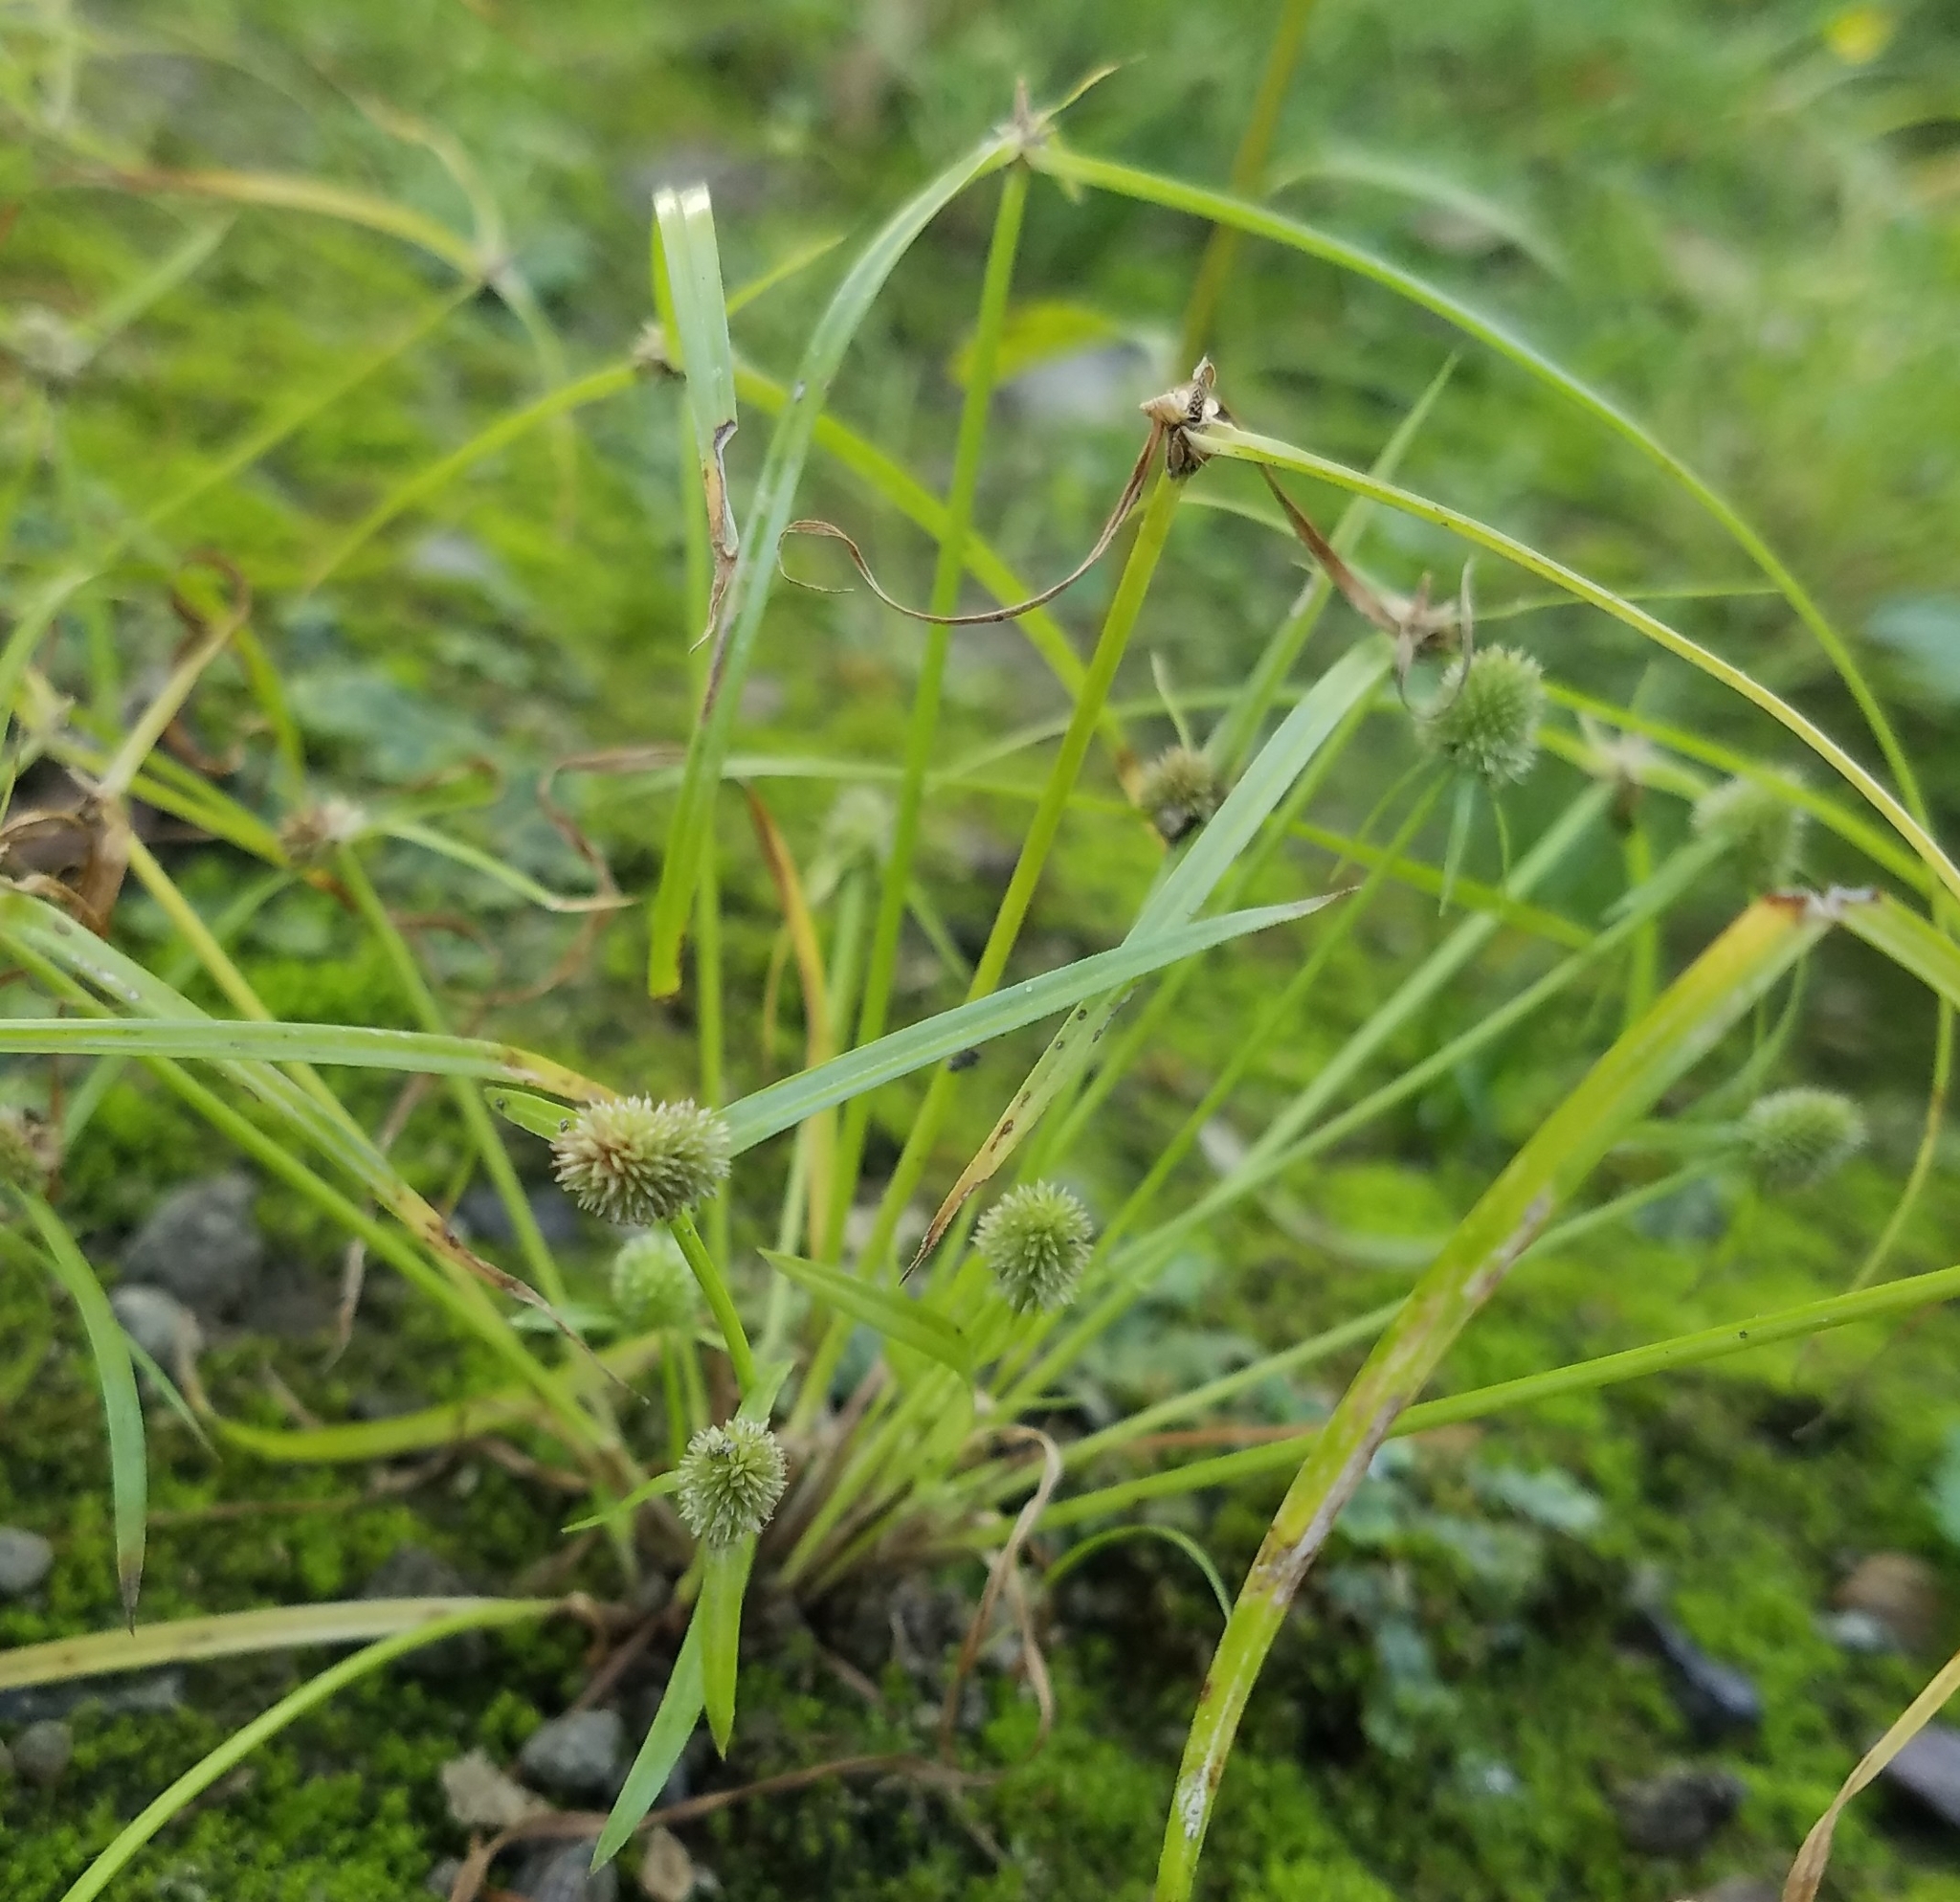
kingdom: Plantae
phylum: Tracheophyta
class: Liliopsida
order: Poales
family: Cyperaceae
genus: Cyperus
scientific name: Cyperus hortensis
